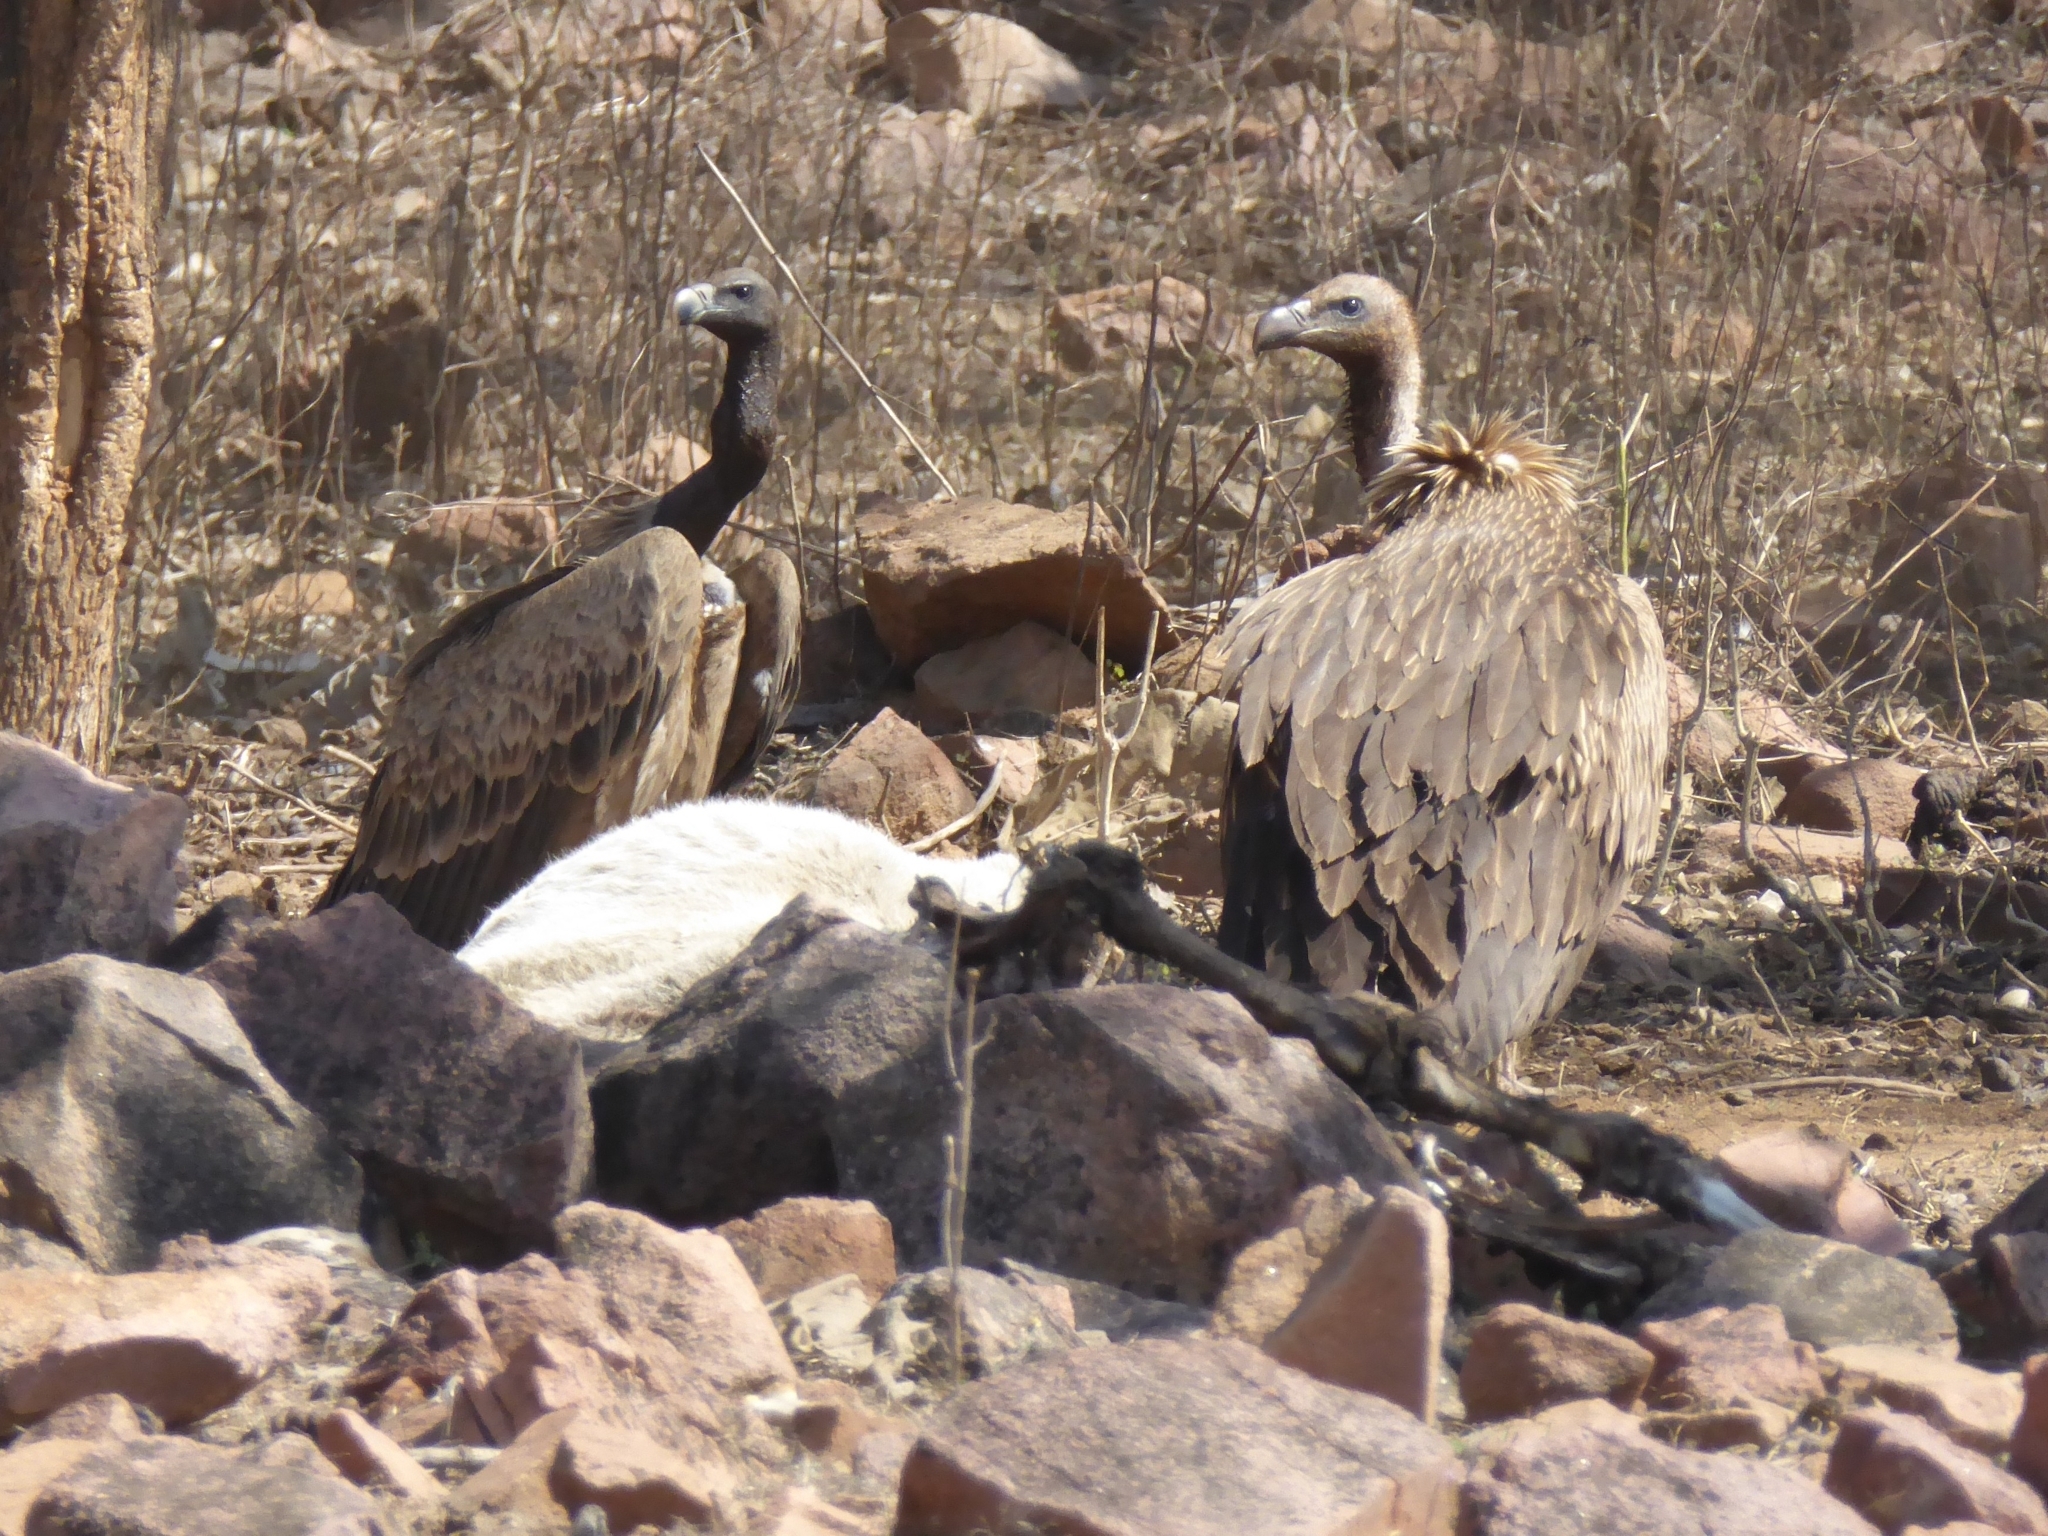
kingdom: Animalia
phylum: Chordata
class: Aves
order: Accipitriformes
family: Accipitridae
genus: Gyps
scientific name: Gyps indicus
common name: Indian vulture
